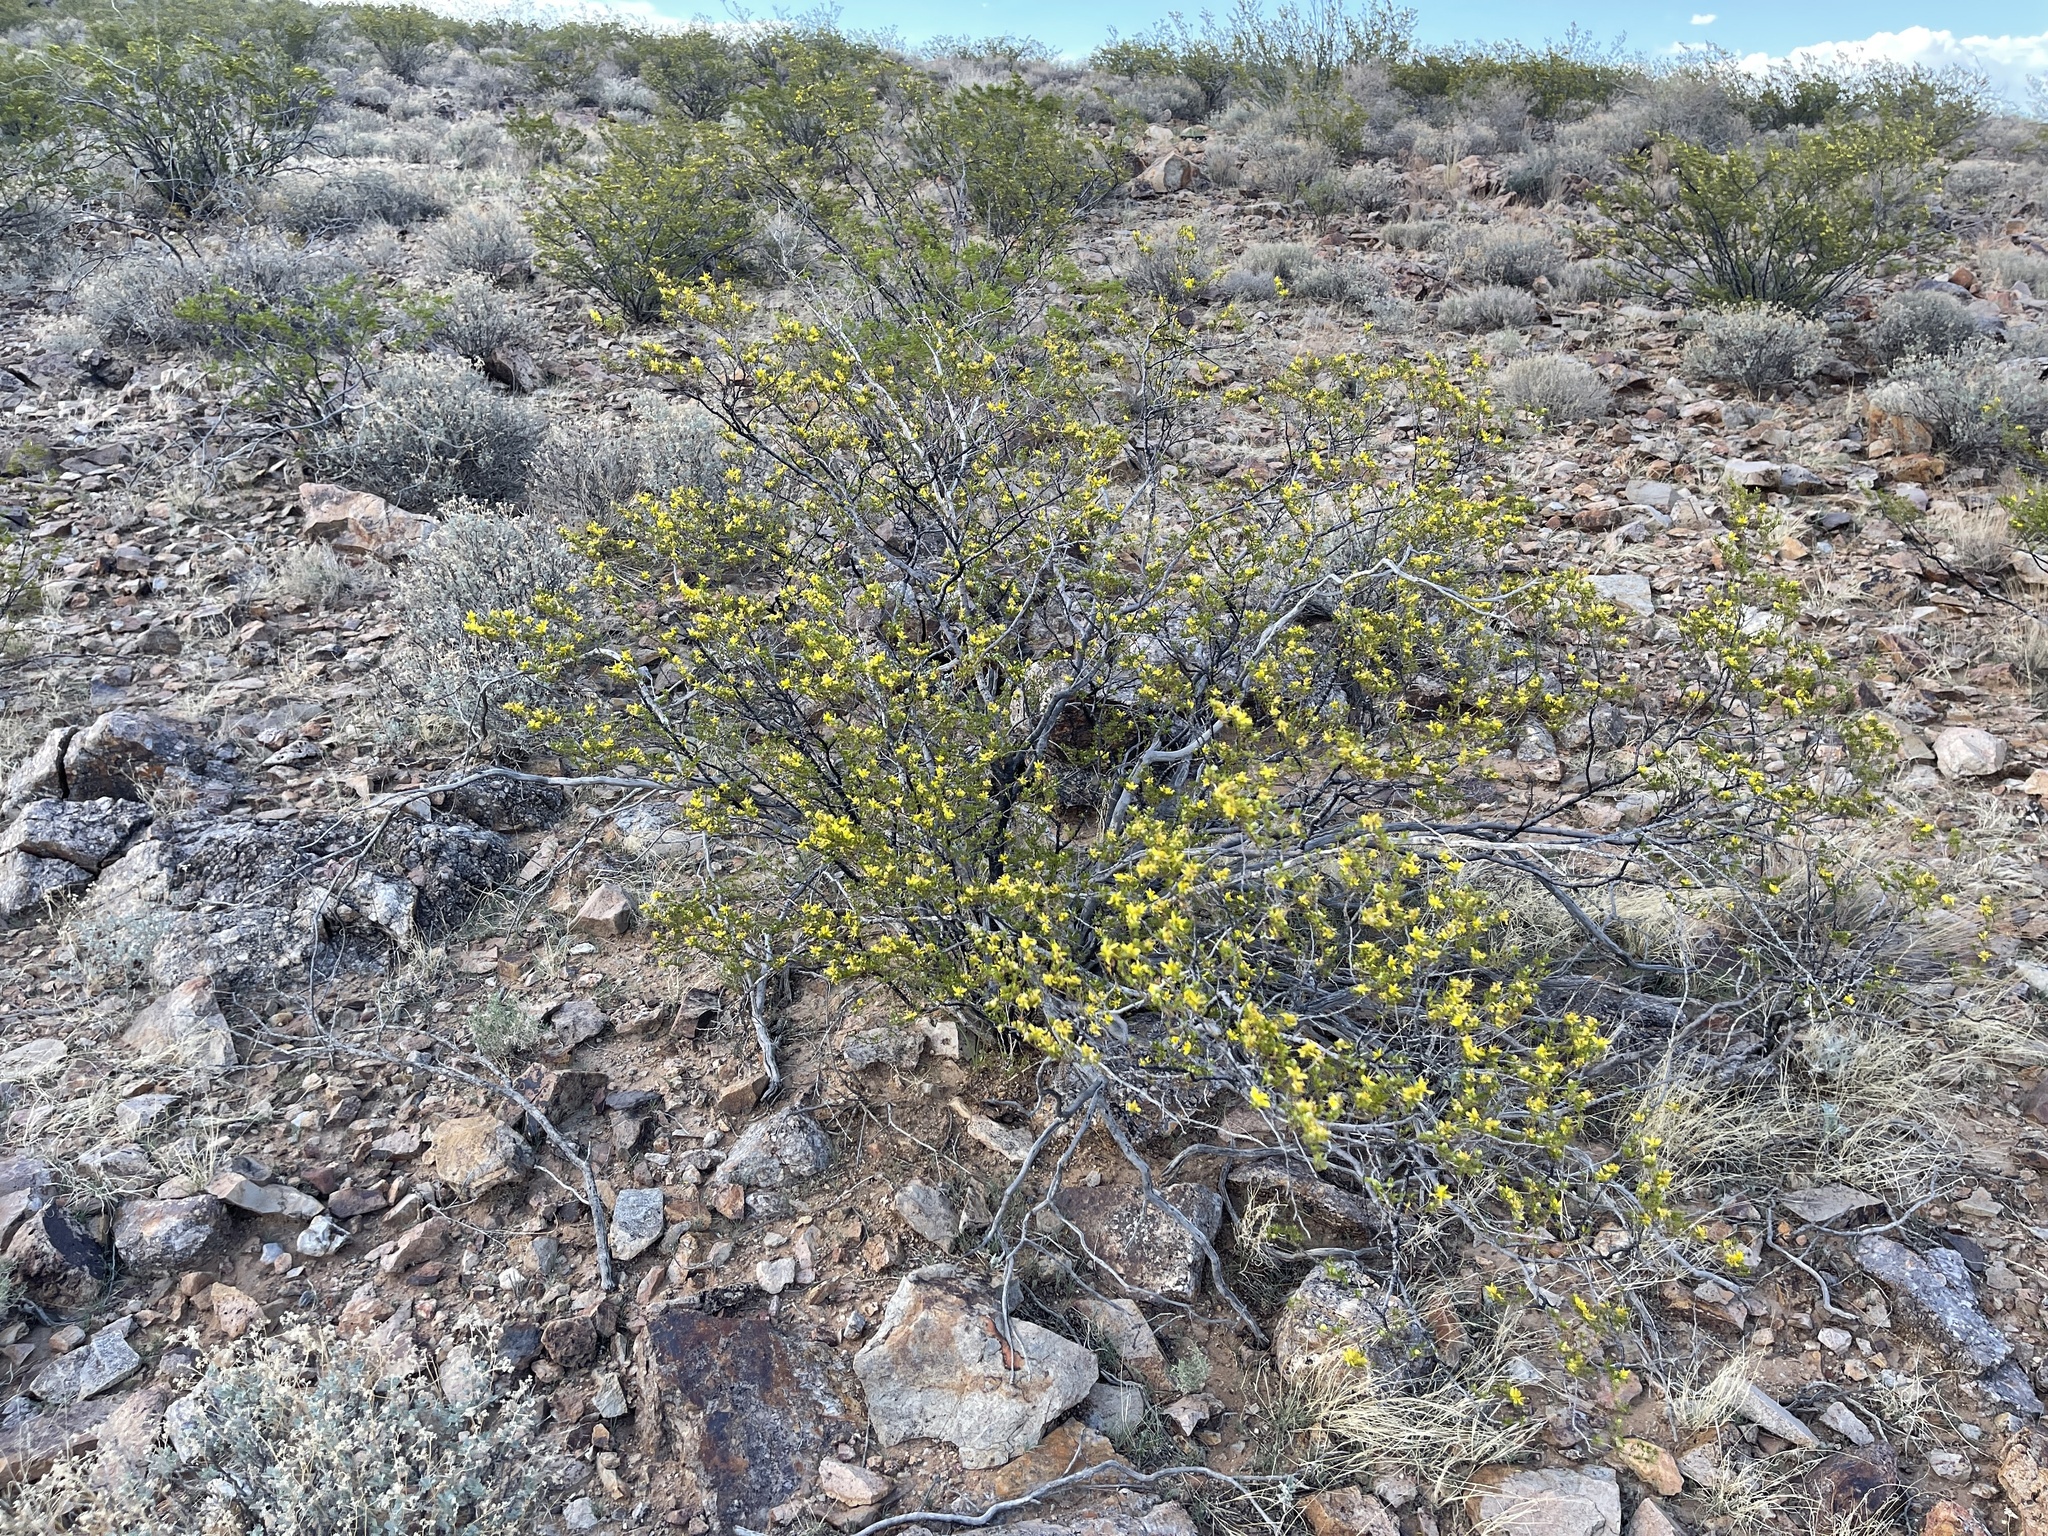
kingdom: Plantae
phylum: Tracheophyta
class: Magnoliopsida
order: Zygophyllales
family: Zygophyllaceae
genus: Larrea
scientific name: Larrea tridentata
